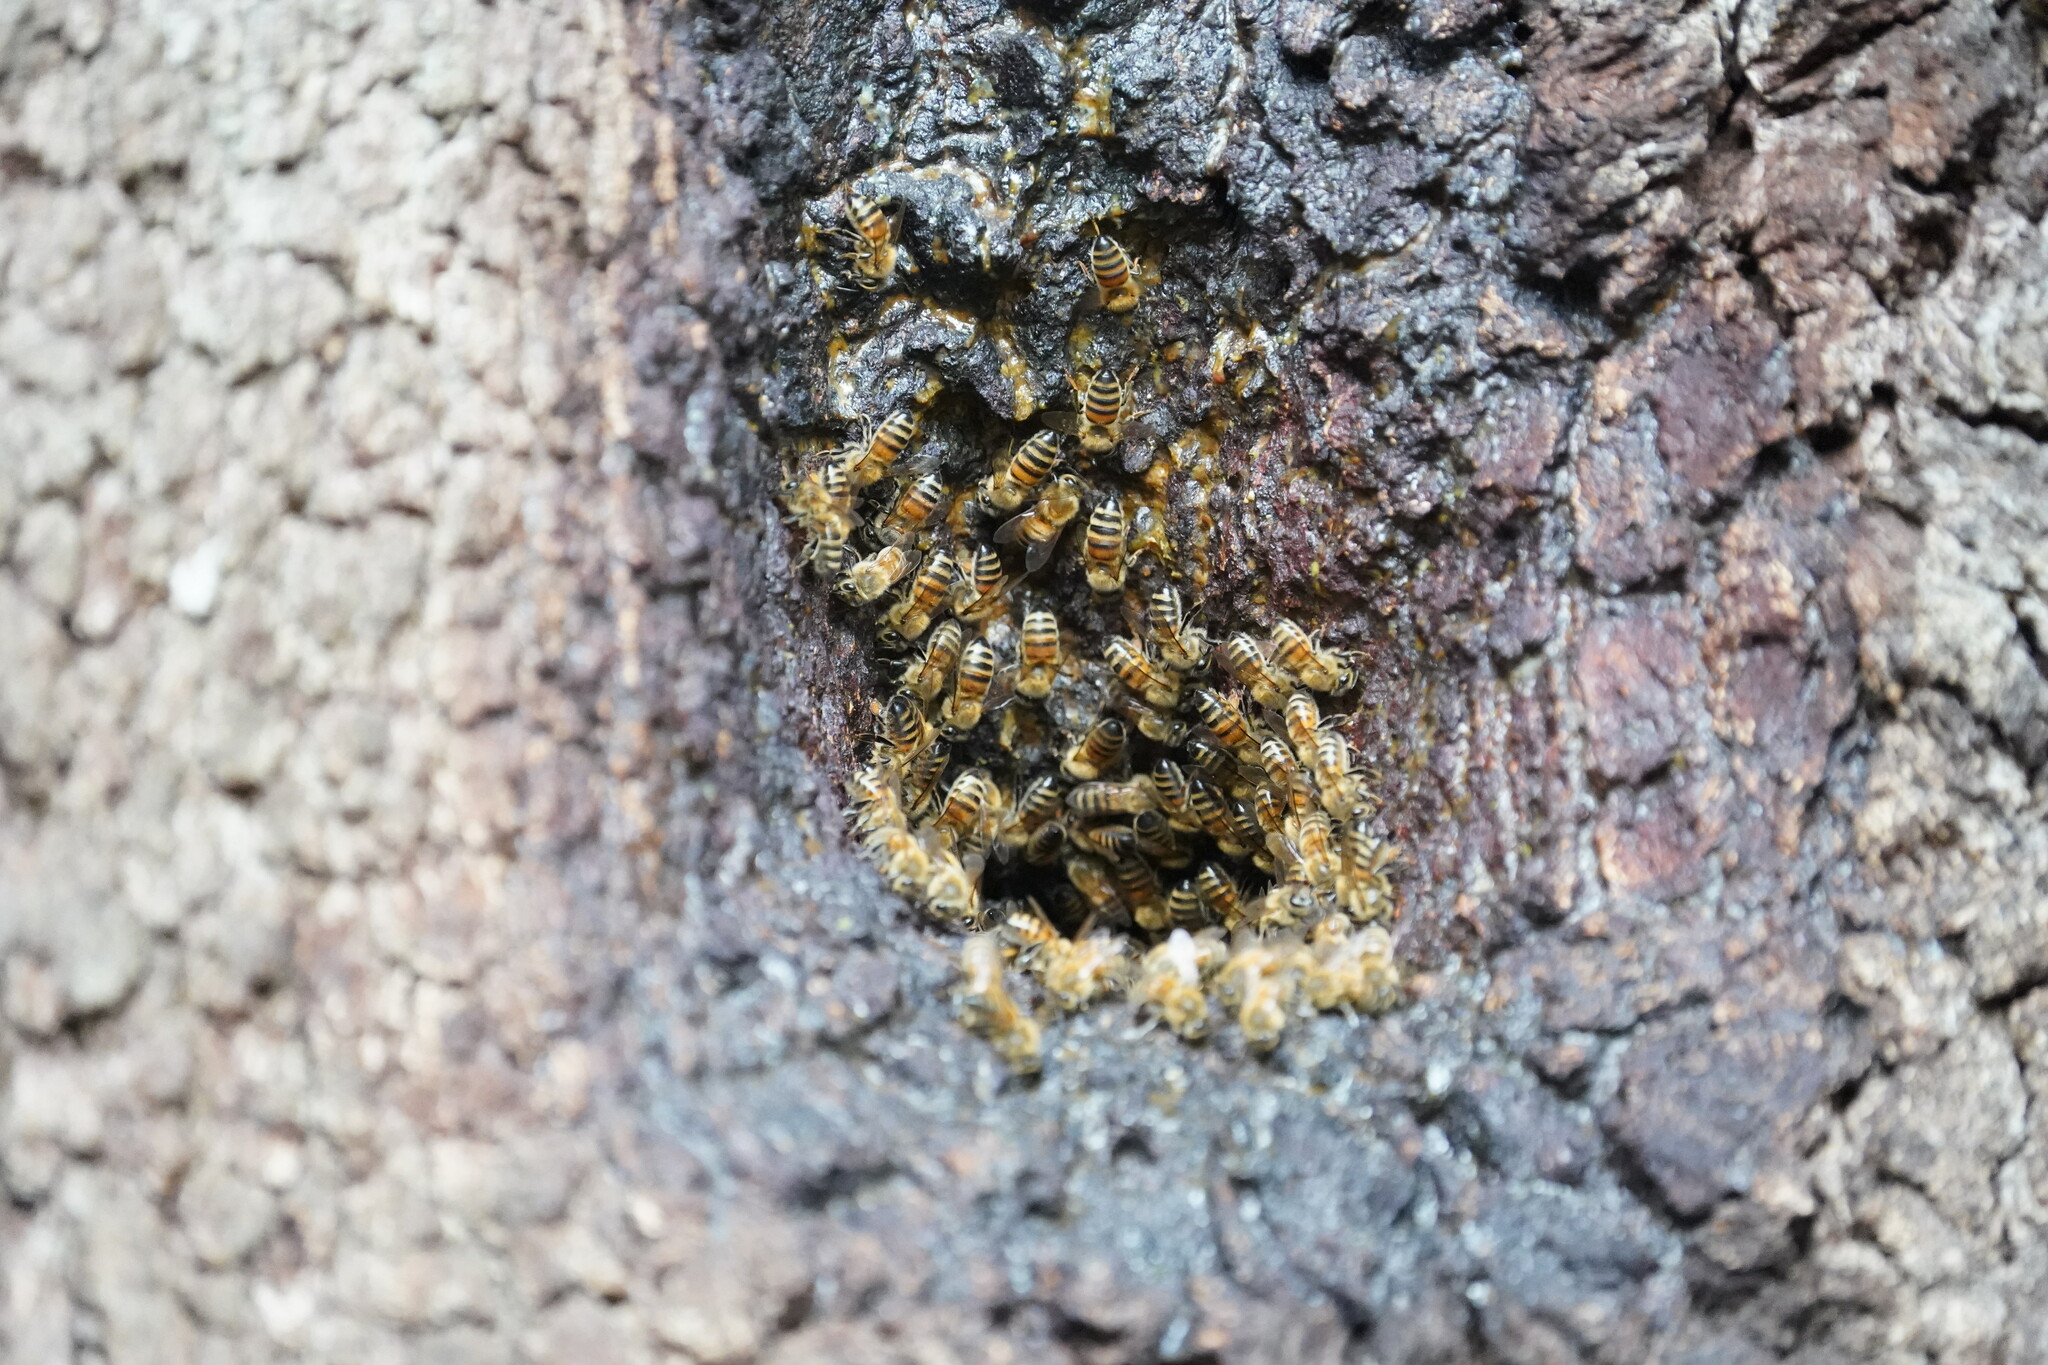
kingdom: Animalia
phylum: Arthropoda
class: Insecta
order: Hymenoptera
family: Apidae
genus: Apis
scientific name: Apis mellifera
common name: Honey bee
